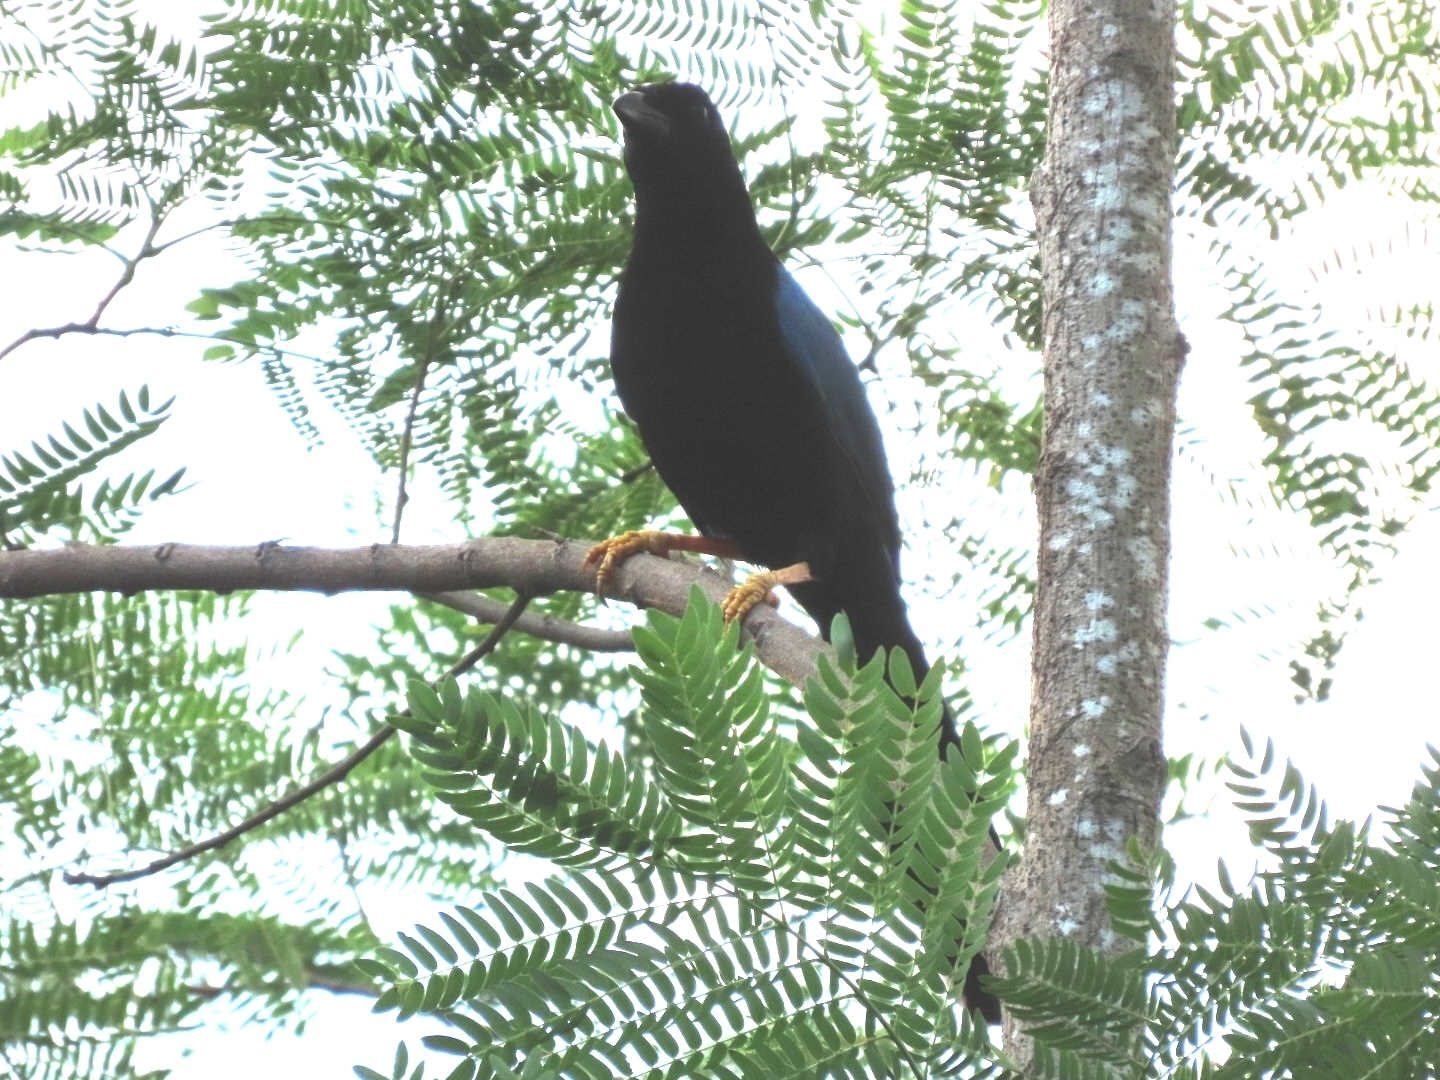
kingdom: Animalia
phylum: Chordata
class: Aves
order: Passeriformes
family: Corvidae
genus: Cyanocorax
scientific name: Cyanocorax yucatanicus
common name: Yucatan jay
